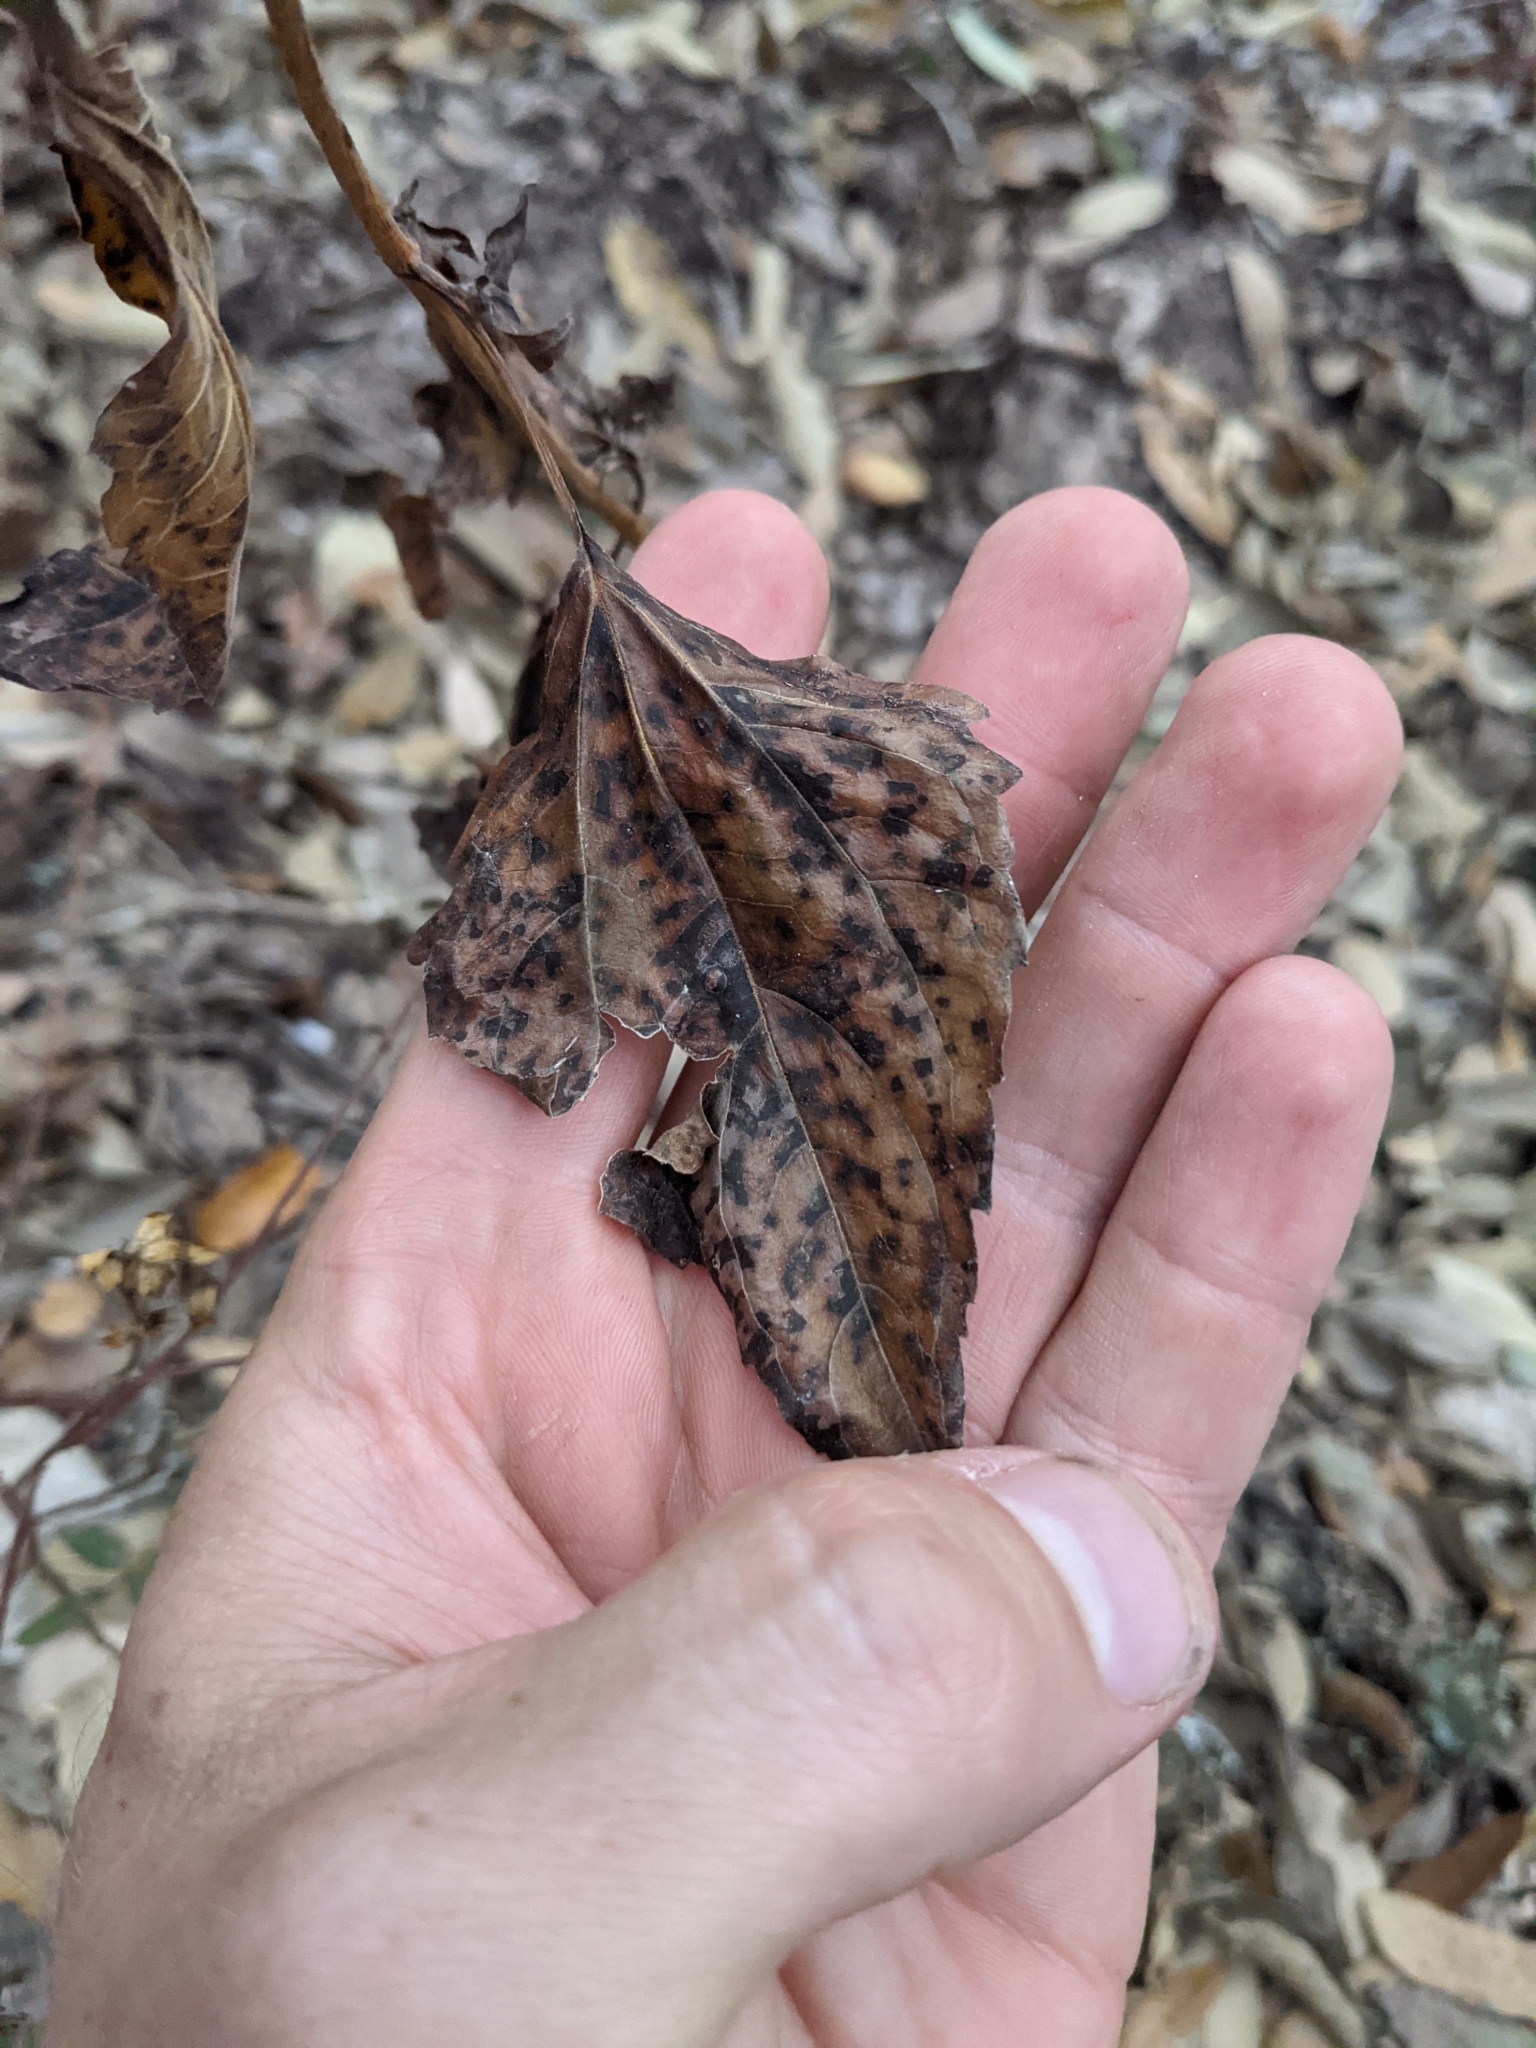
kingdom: Plantae
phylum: Tracheophyta
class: Magnoliopsida
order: Asterales
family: Asteraceae
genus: Ageratina
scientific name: Ageratina altissima
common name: White snakeroot
